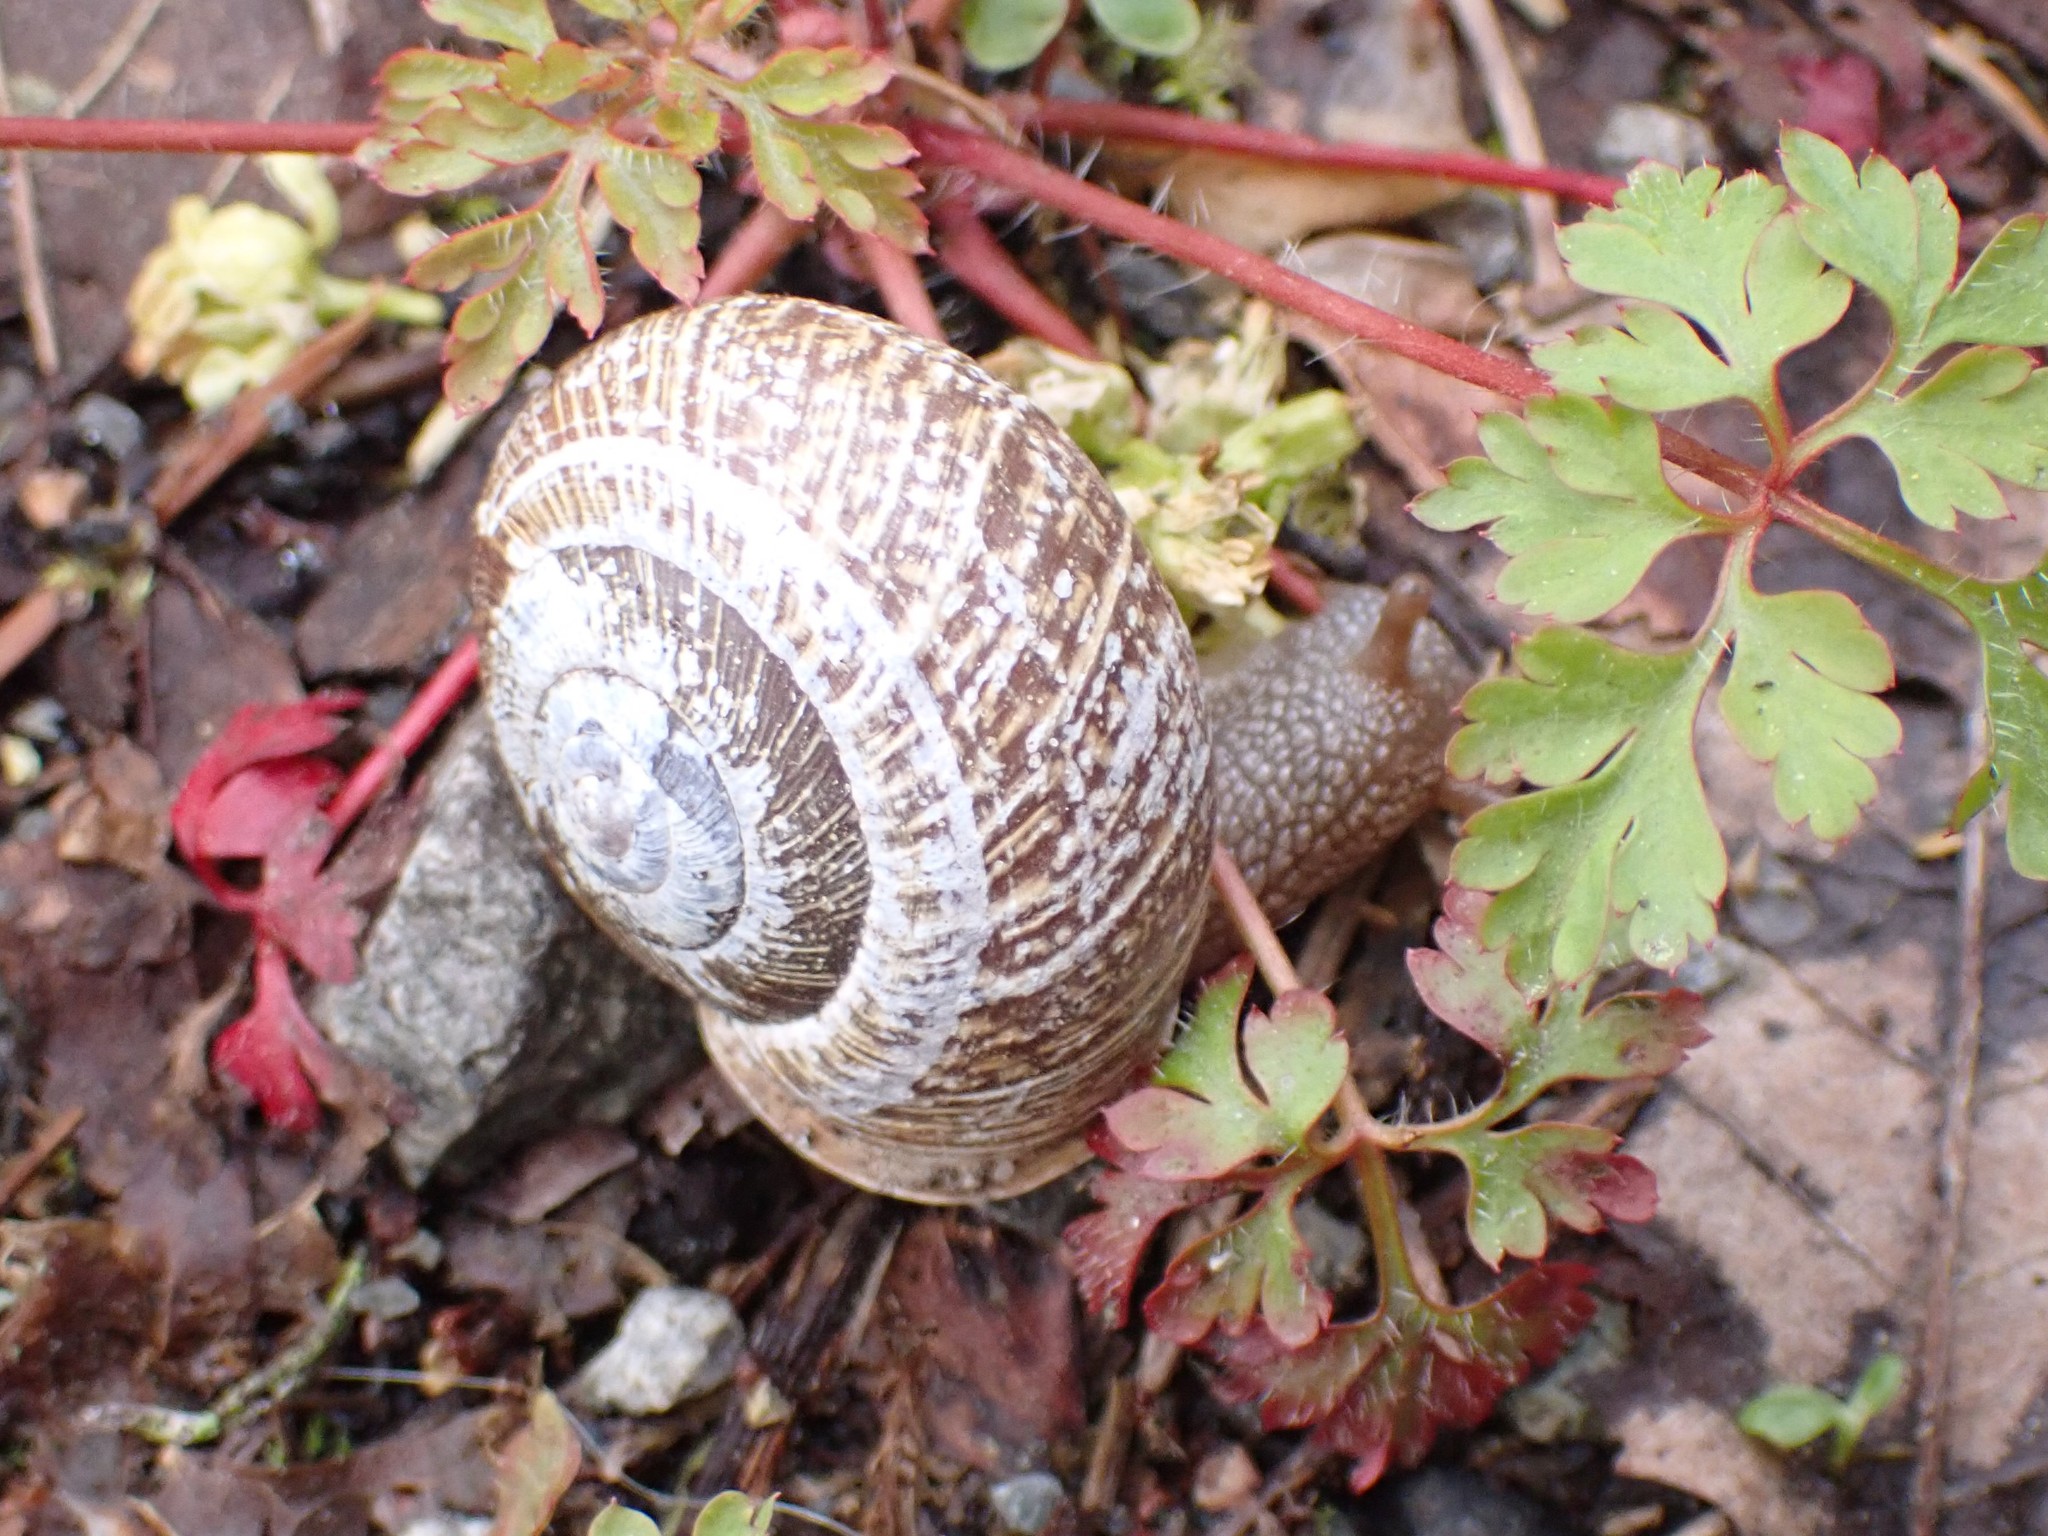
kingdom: Animalia
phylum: Mollusca
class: Gastropoda
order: Stylommatophora
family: Polygyridae
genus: Allogona
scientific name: Allogona townsendiana
